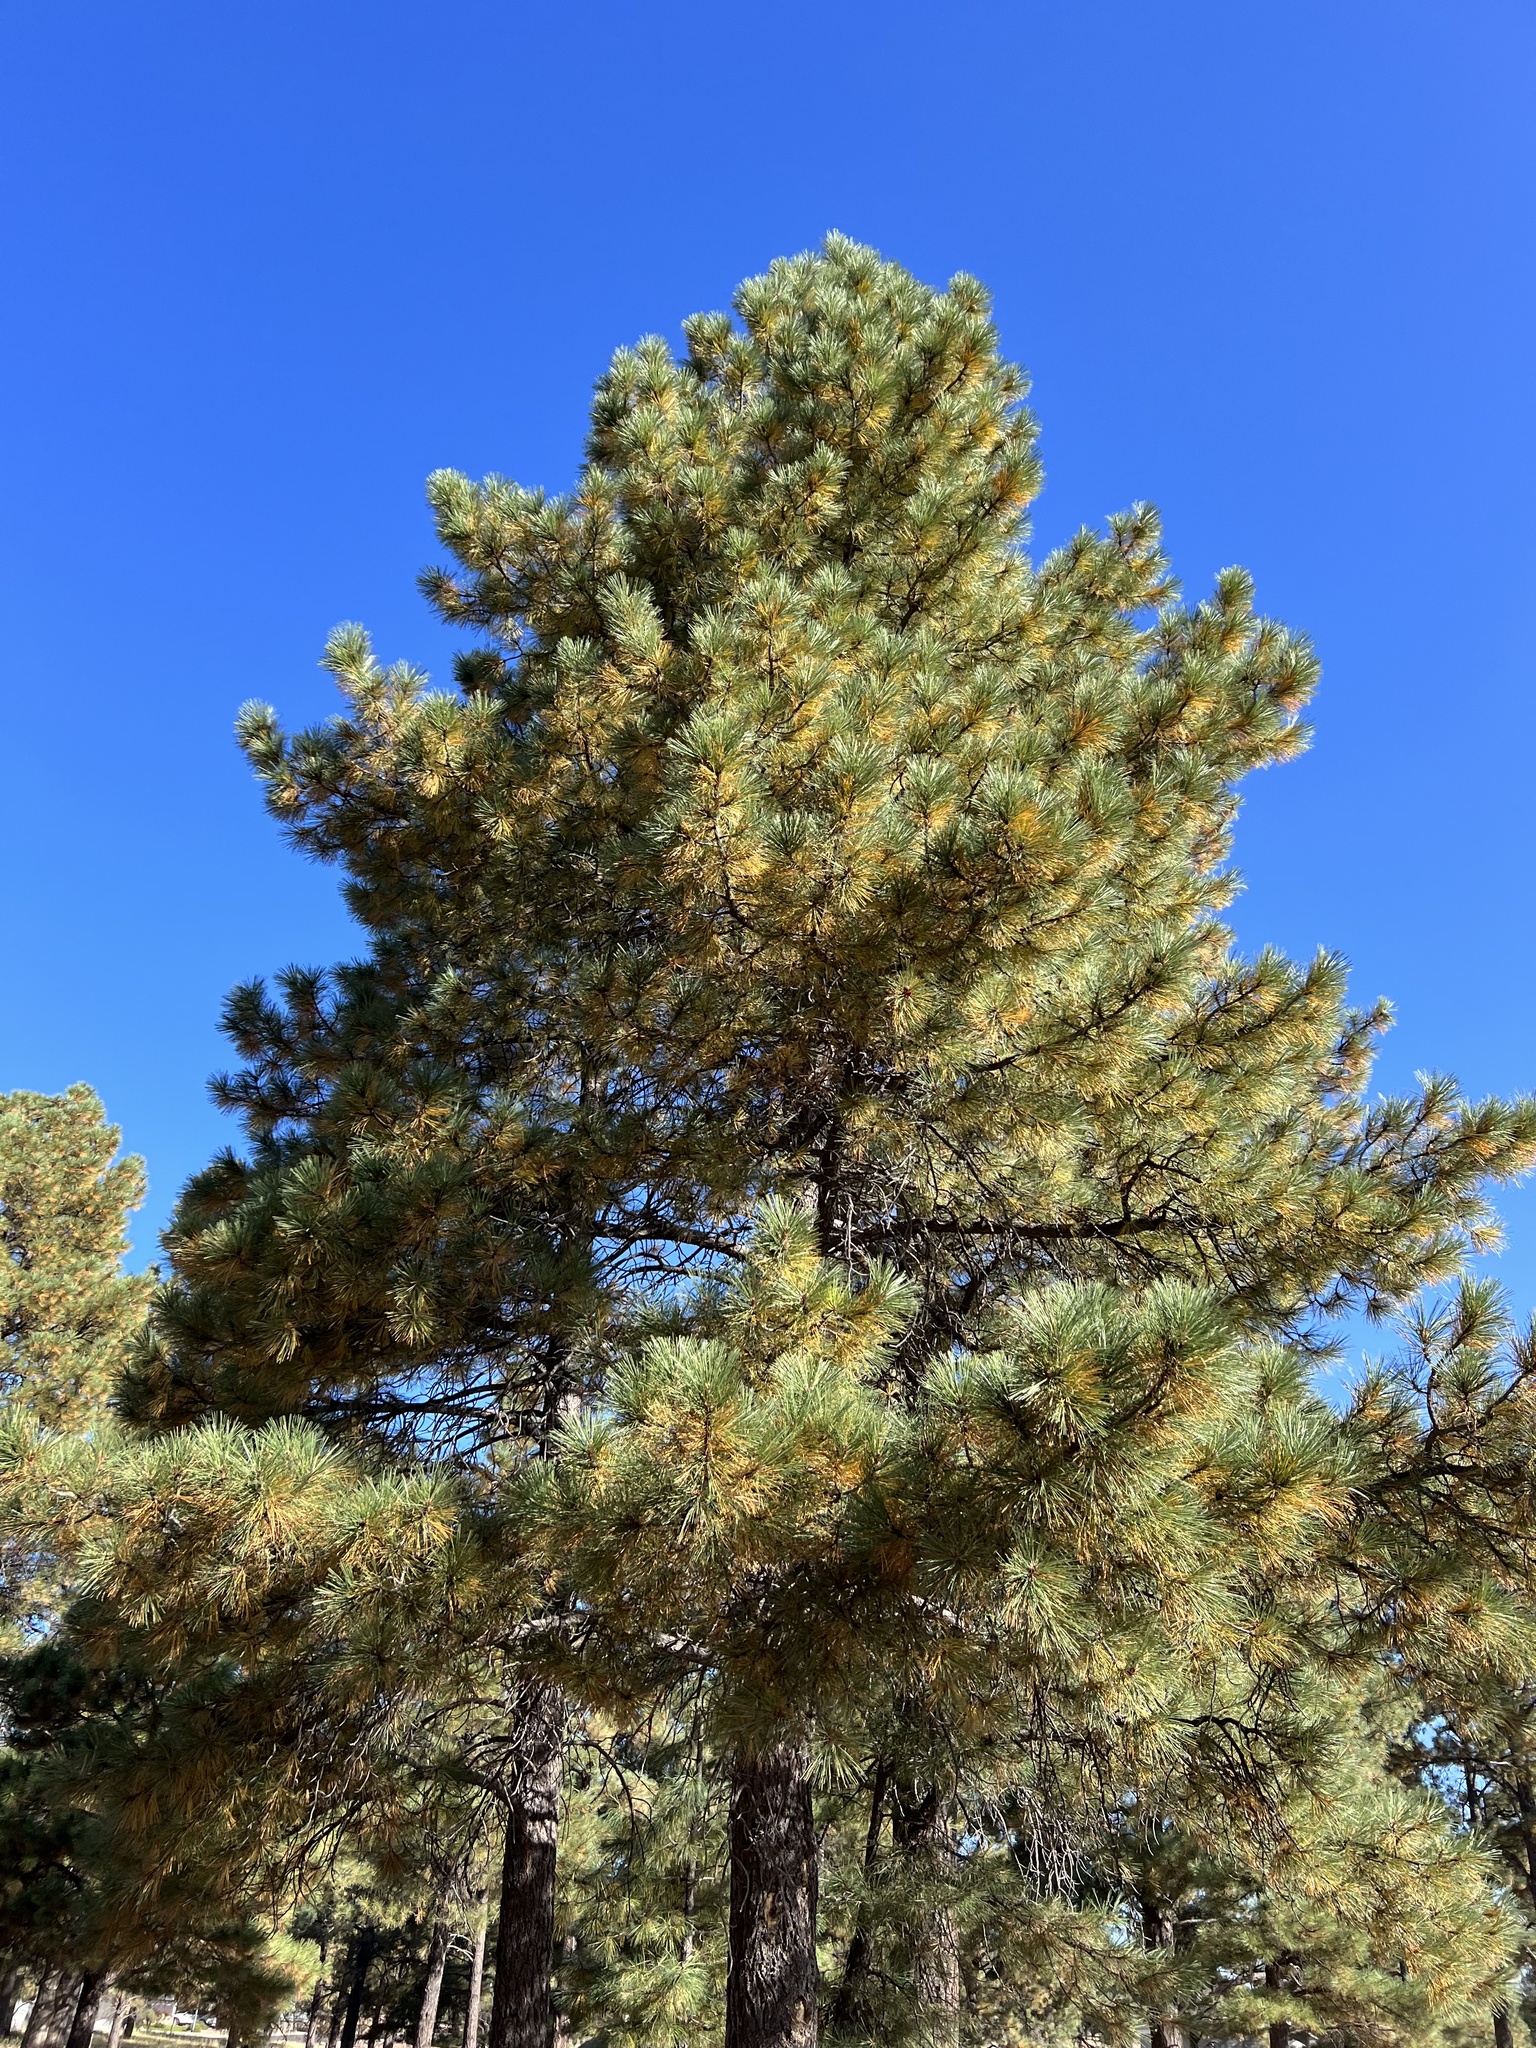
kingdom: Plantae
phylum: Tracheophyta
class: Pinopsida
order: Pinales
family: Pinaceae
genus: Pinus
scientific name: Pinus ponderosa
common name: Western yellow-pine
